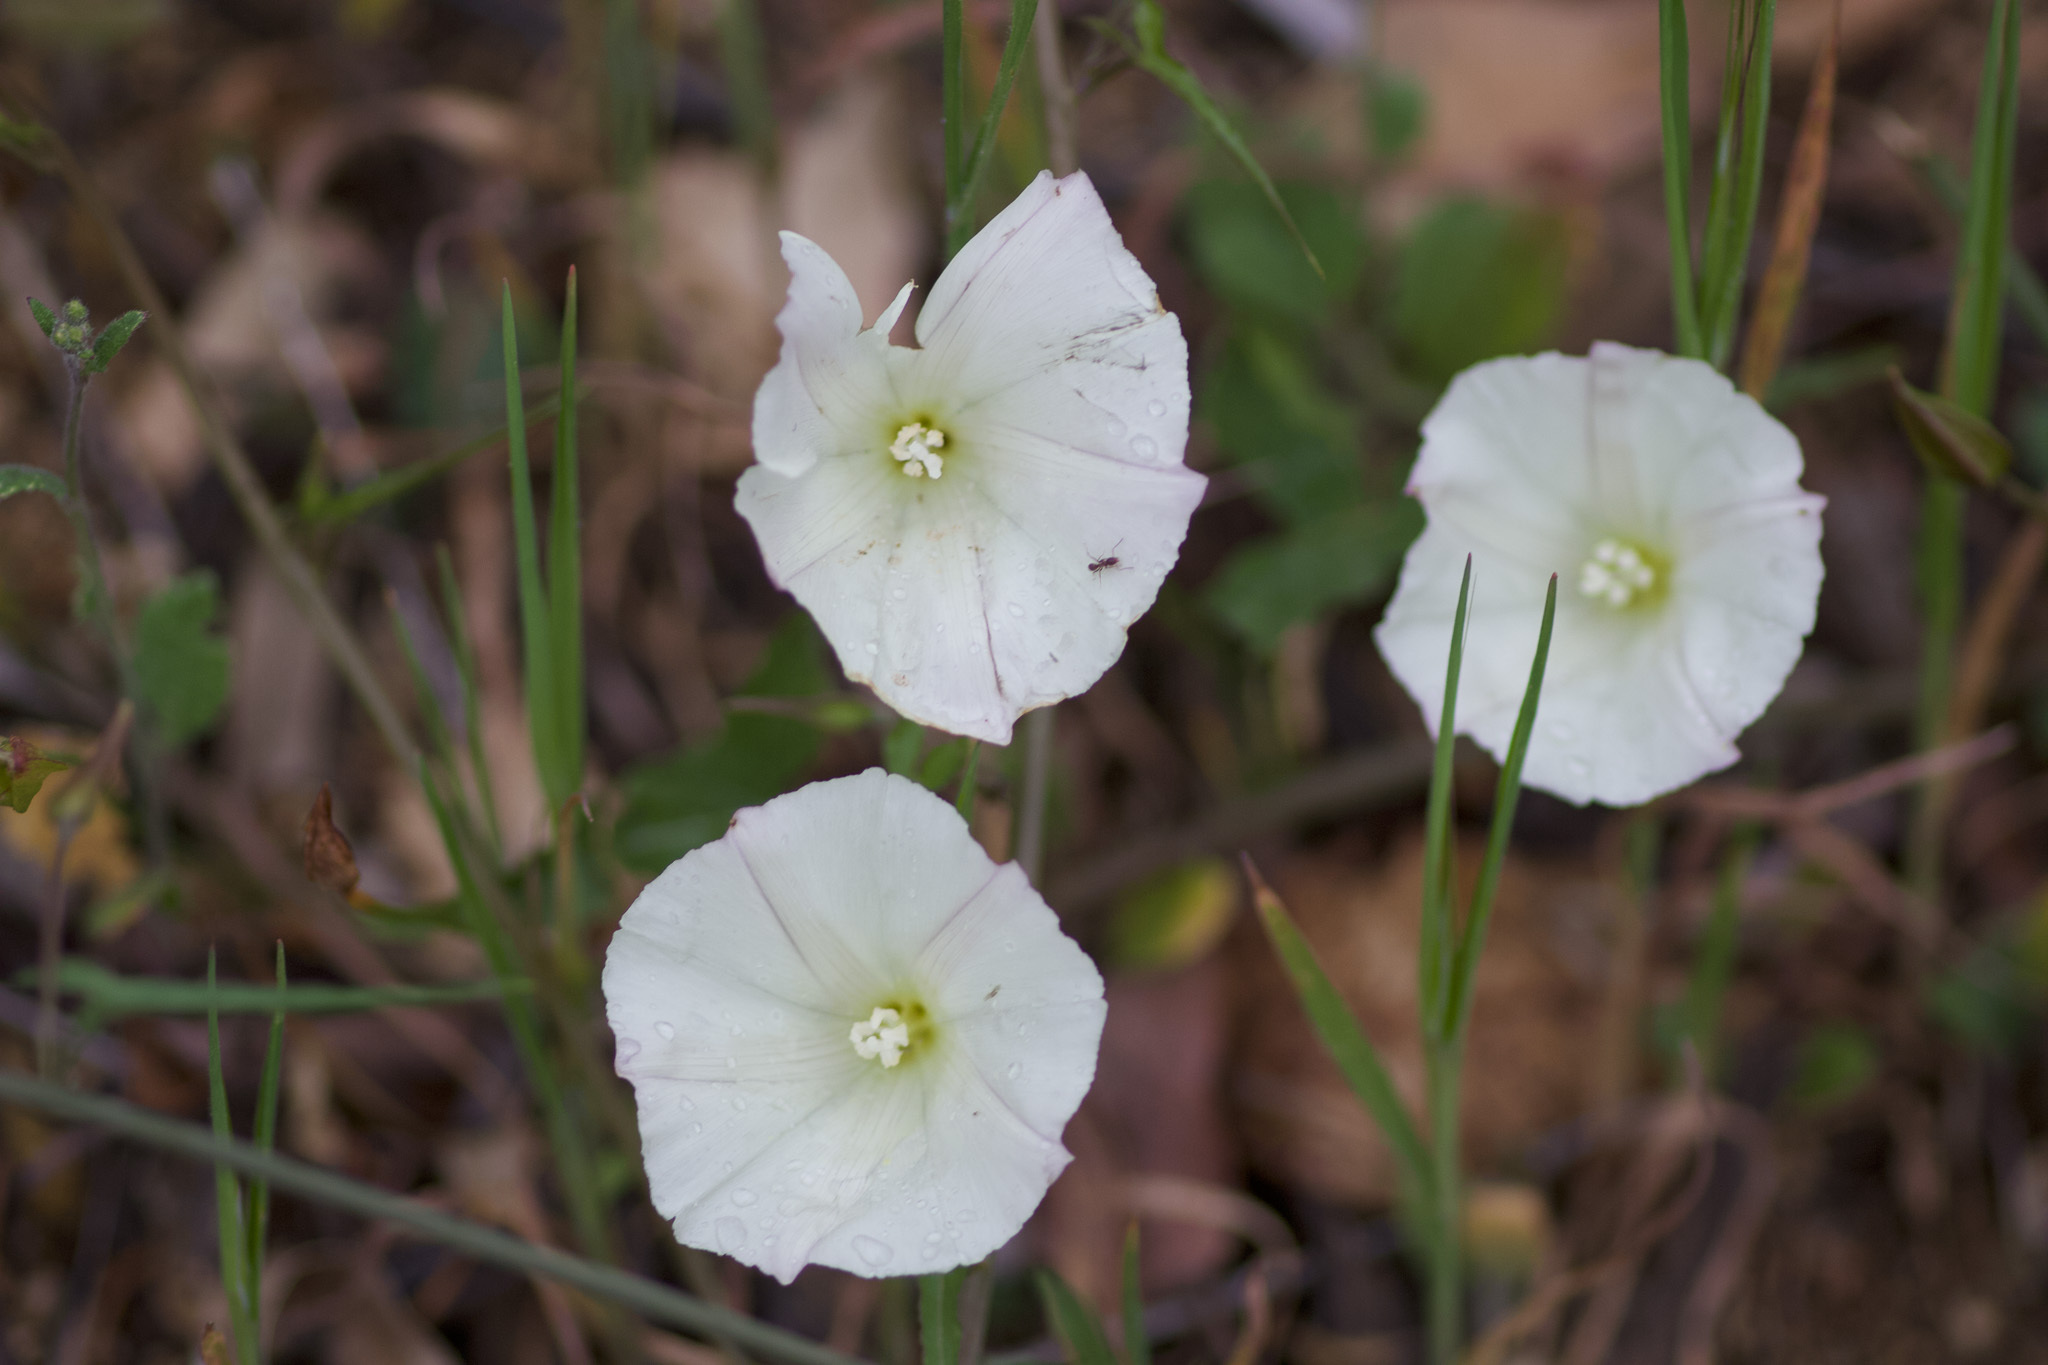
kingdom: Plantae
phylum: Tracheophyta
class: Magnoliopsida
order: Solanales
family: Convolvulaceae
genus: Calystegia
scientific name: Calystegia macrostegia
